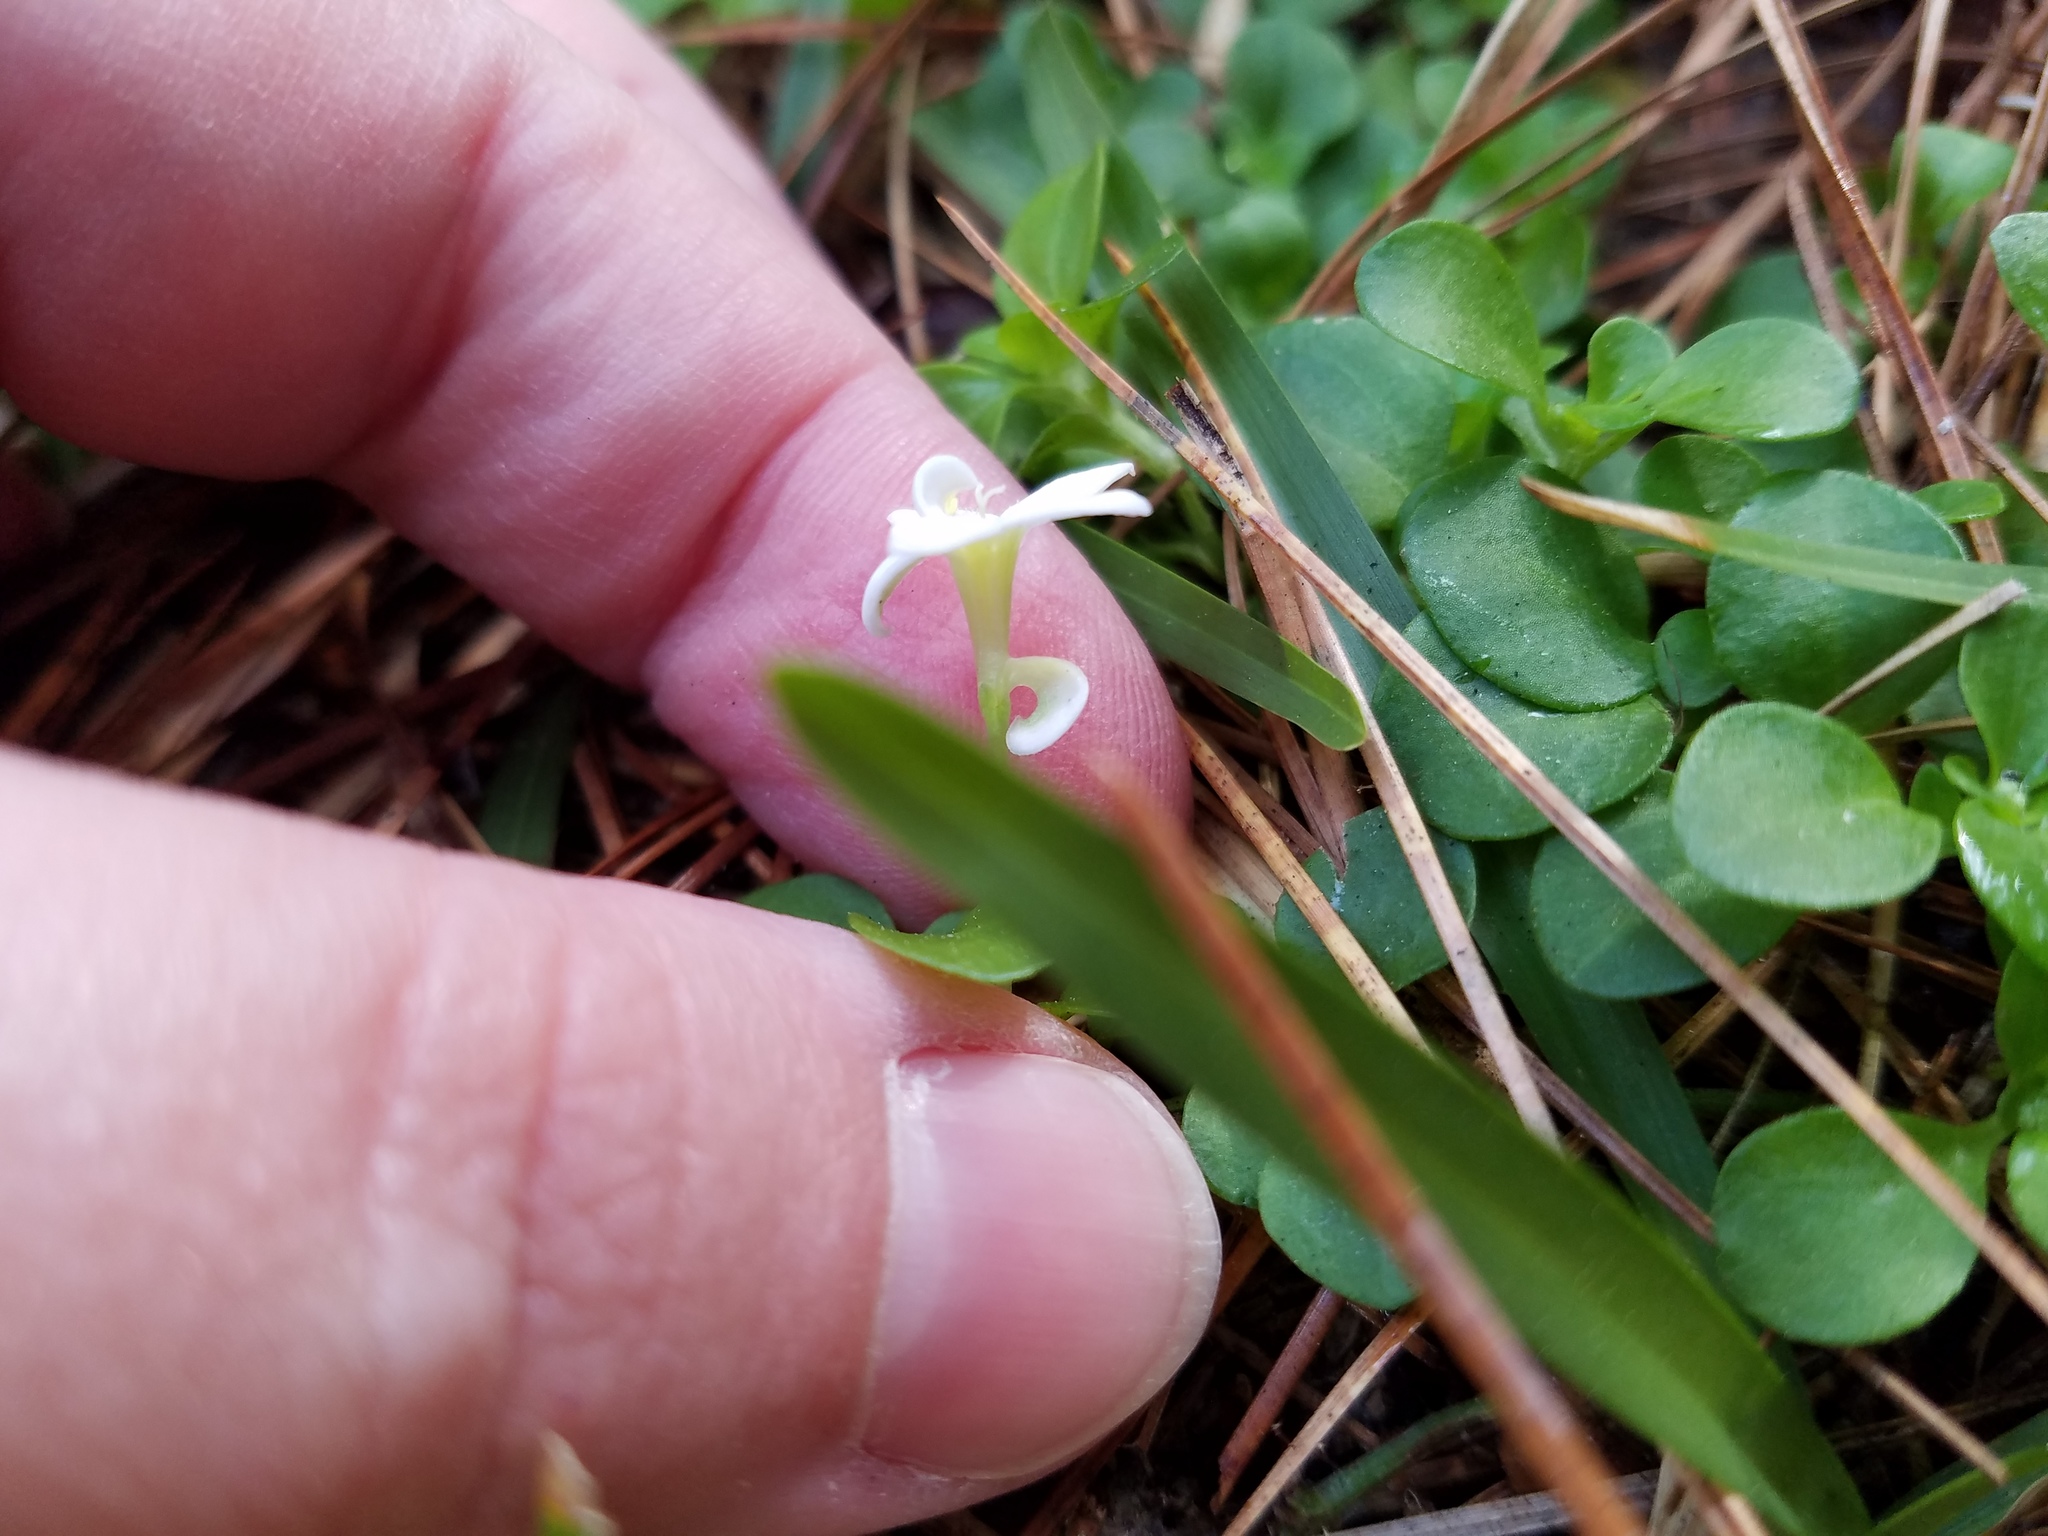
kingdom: Plantae
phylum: Tracheophyta
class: Magnoliopsida
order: Gentianales
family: Rubiaceae
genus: Houstonia
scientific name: Houstonia procumbens
